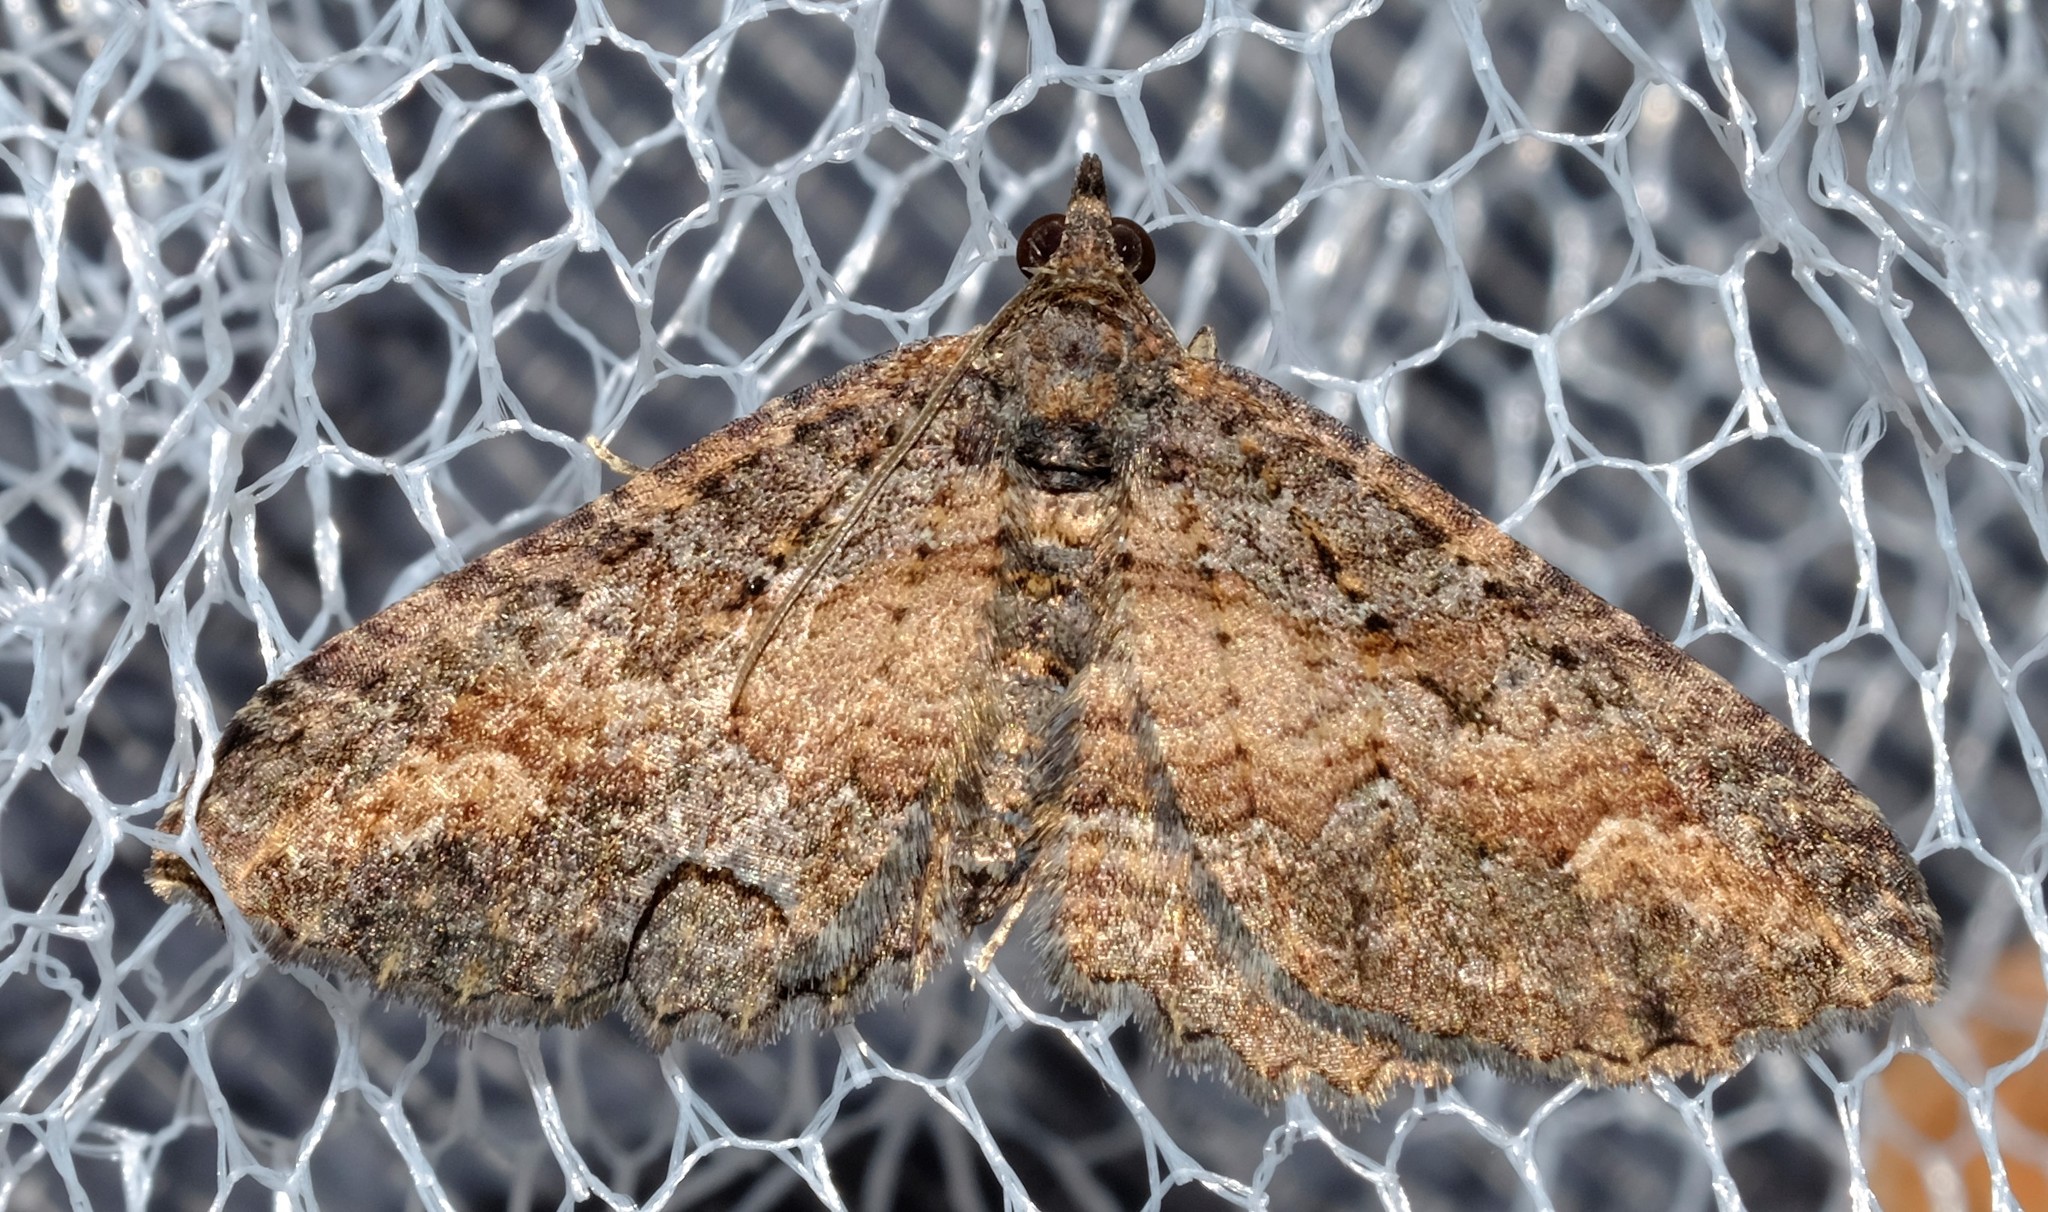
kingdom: Animalia
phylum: Arthropoda
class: Insecta
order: Lepidoptera
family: Geometridae
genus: Eupithecia
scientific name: Eupithecia Eucymatoge scotodes
